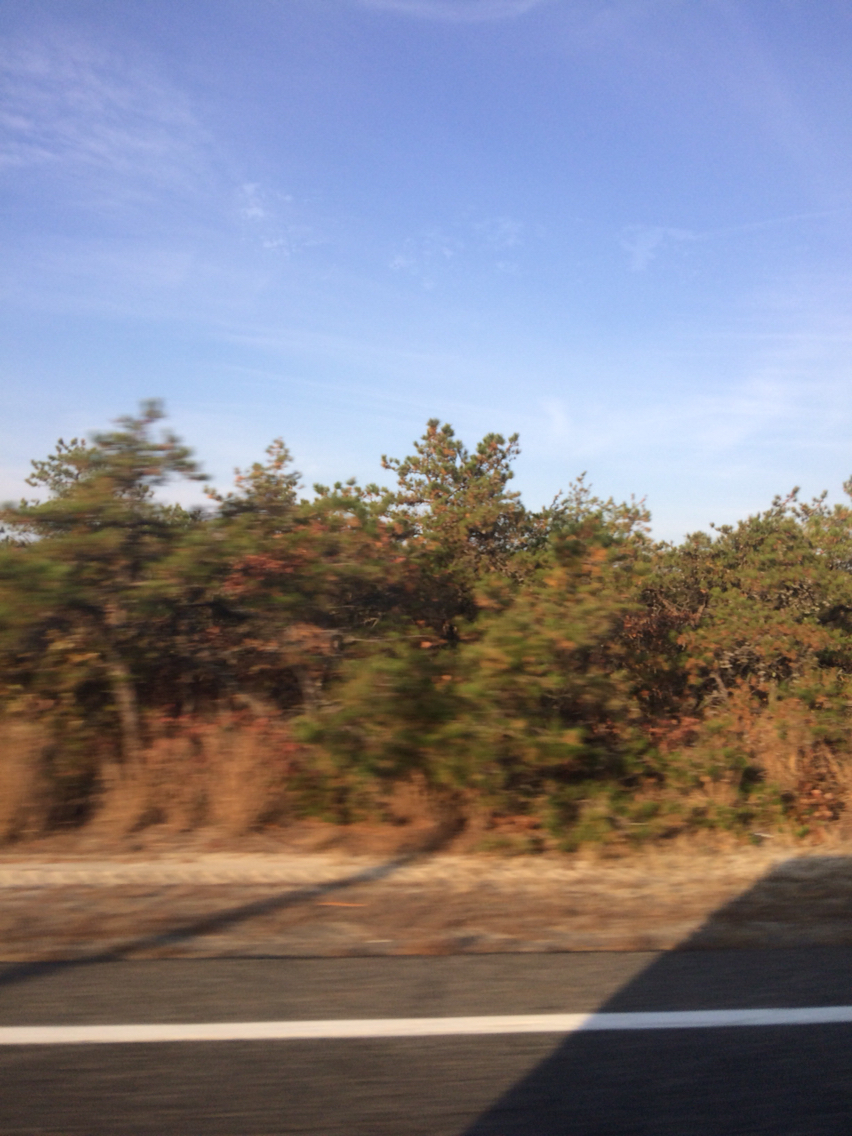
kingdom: Plantae
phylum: Tracheophyta
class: Pinopsida
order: Pinales
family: Pinaceae
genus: Pinus
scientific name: Pinus rigida
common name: Pitch pine
